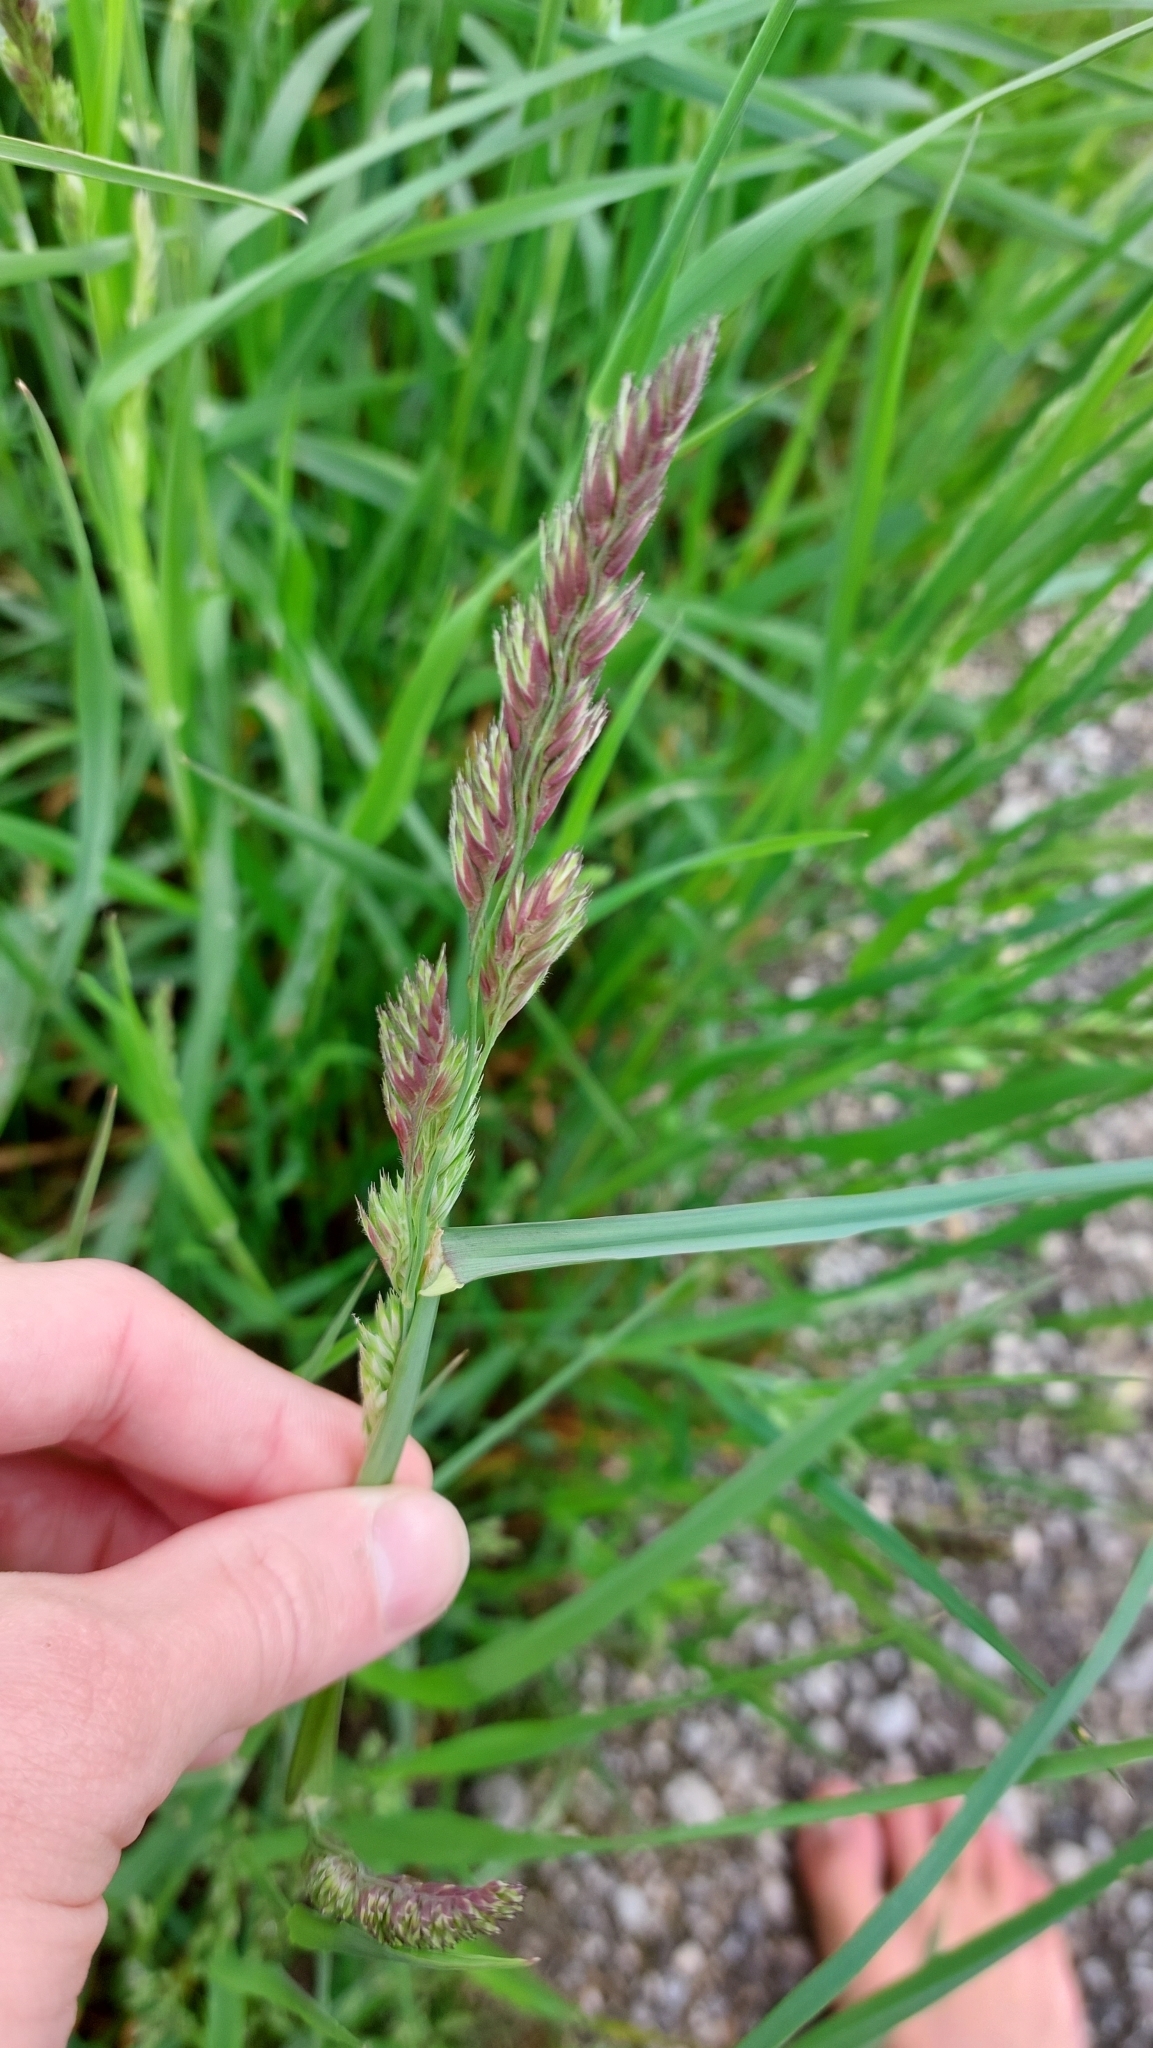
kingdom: Plantae
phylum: Tracheophyta
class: Liliopsida
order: Poales
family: Poaceae
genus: Dactylis
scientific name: Dactylis glomerata
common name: Orchardgrass
